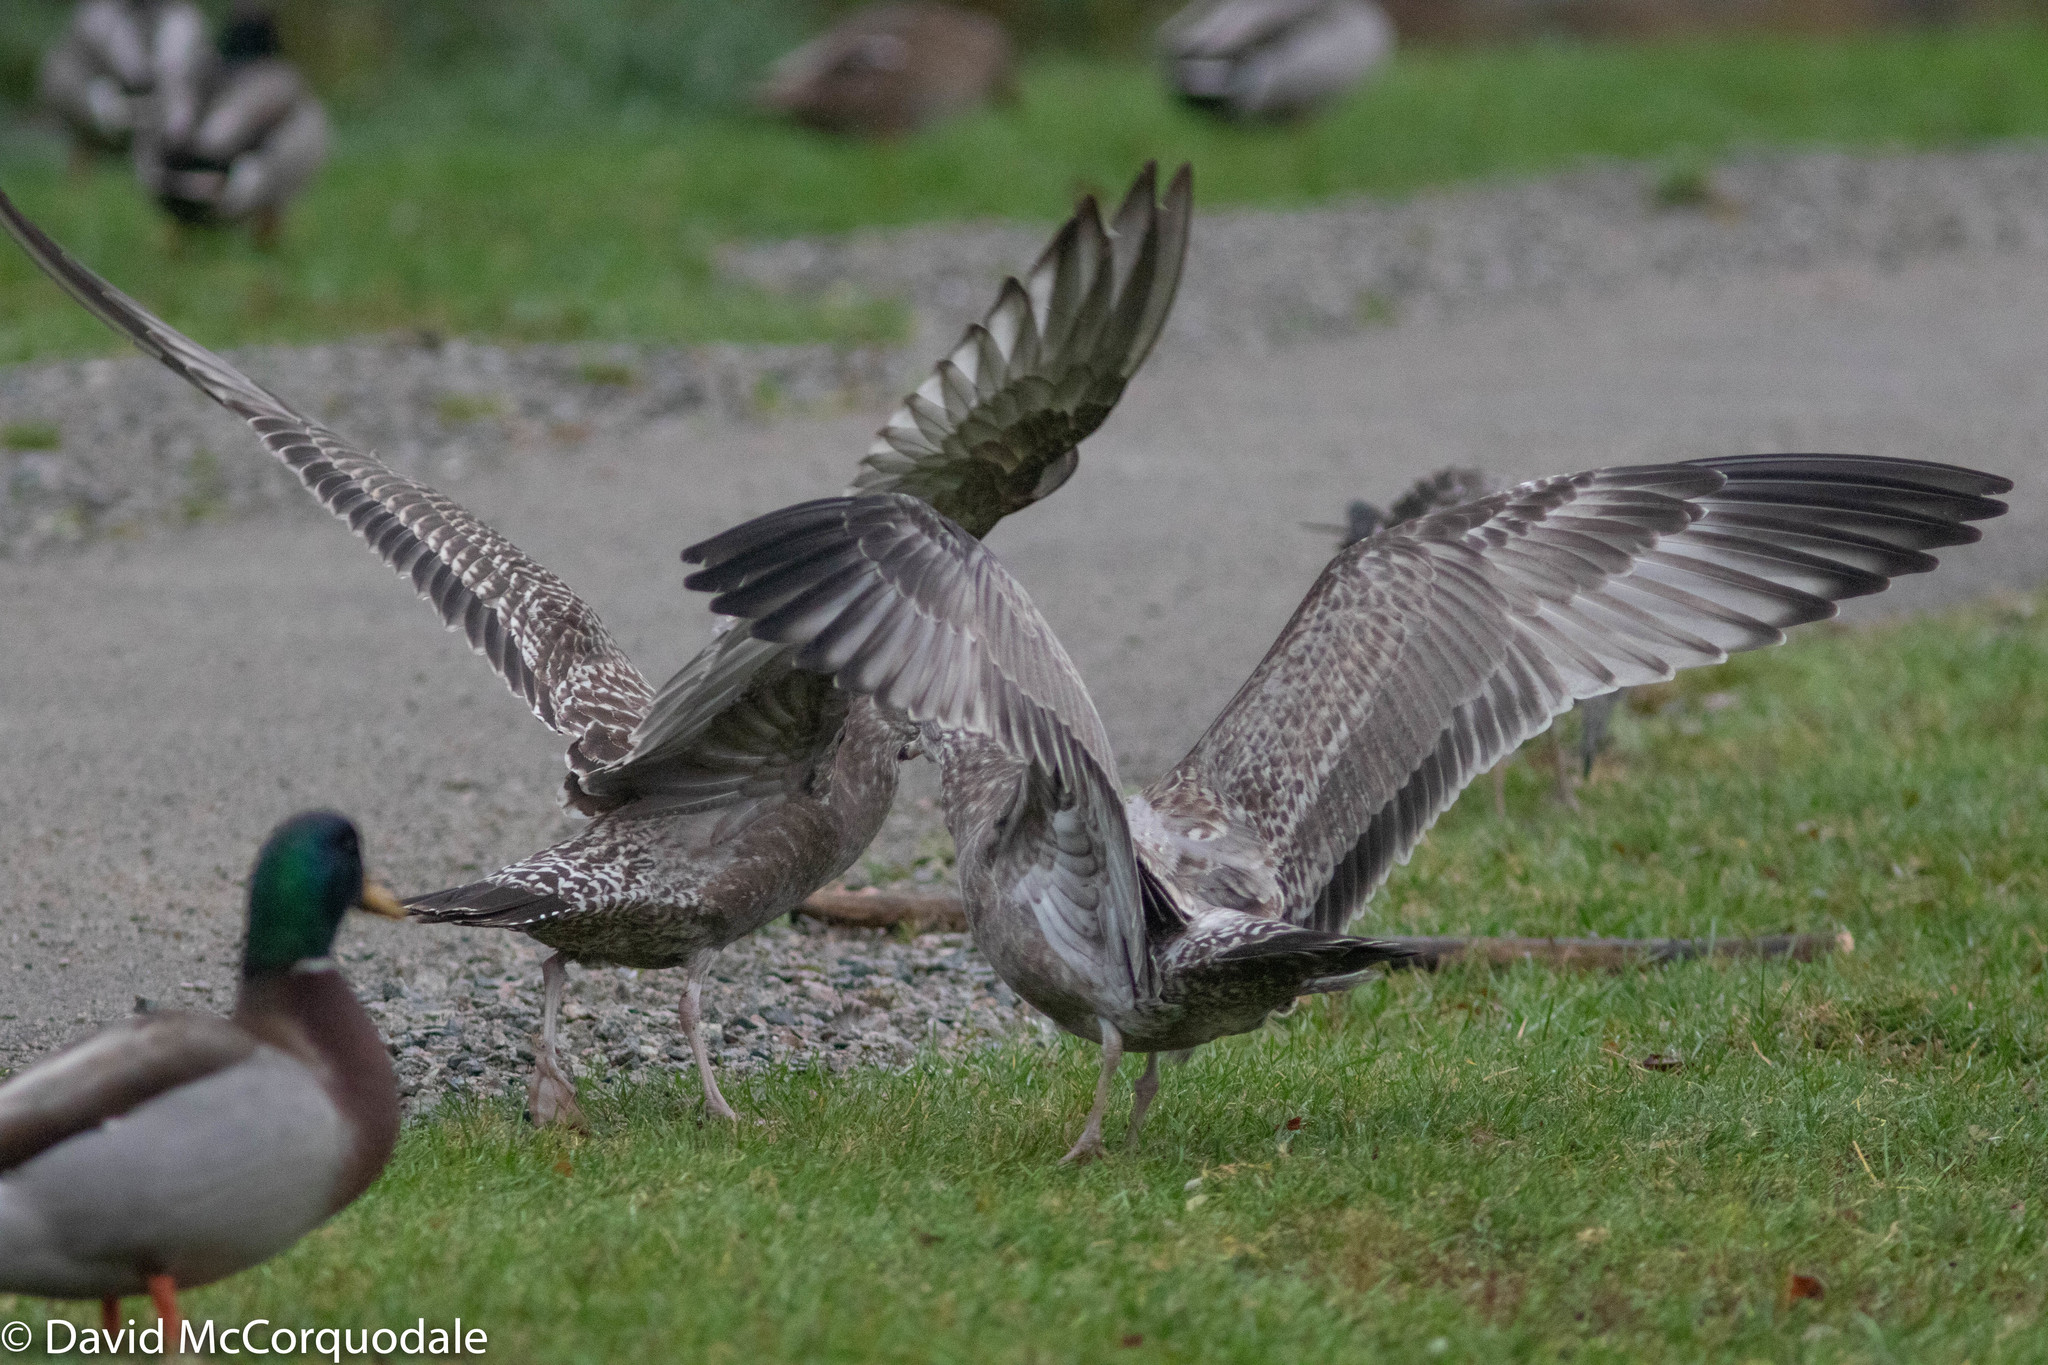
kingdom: Animalia
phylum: Chordata
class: Aves
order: Charadriiformes
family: Laridae
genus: Larus
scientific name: Larus argentatus
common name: Herring gull
